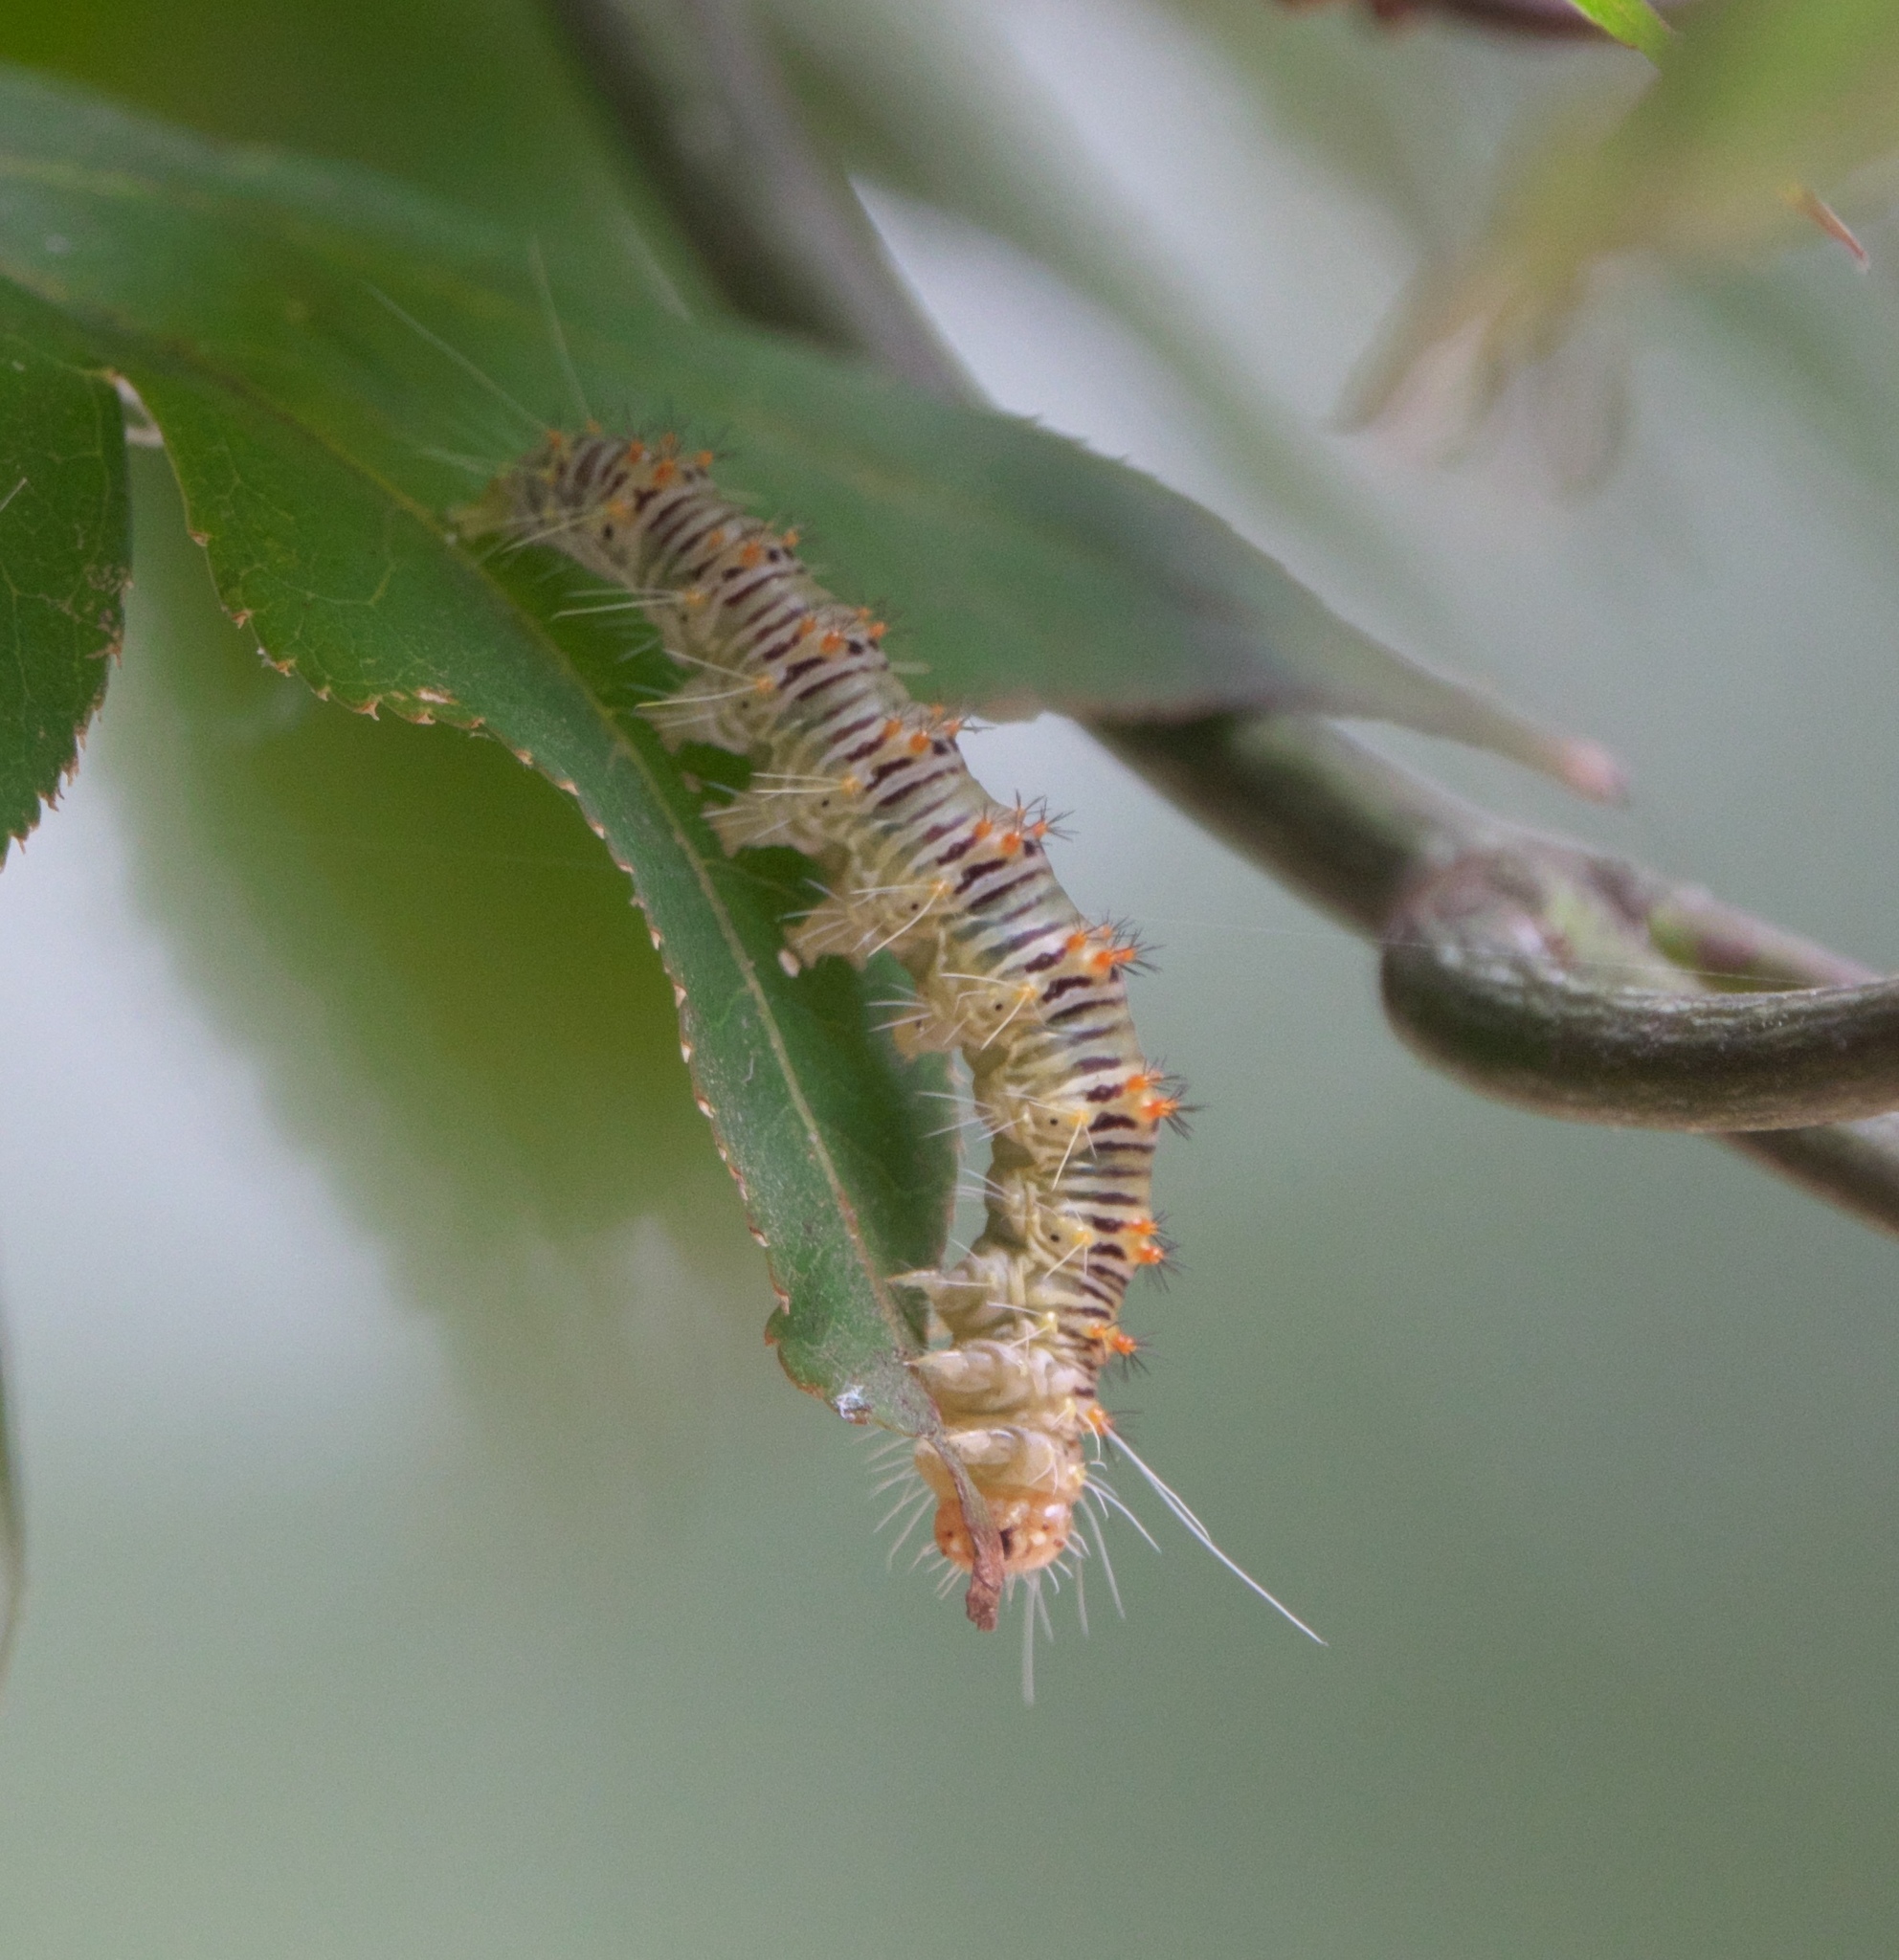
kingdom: Animalia
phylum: Arthropoda
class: Insecta
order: Lepidoptera
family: Noctuidae
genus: Acronicta
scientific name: Acronicta retardata
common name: Maple dagger
